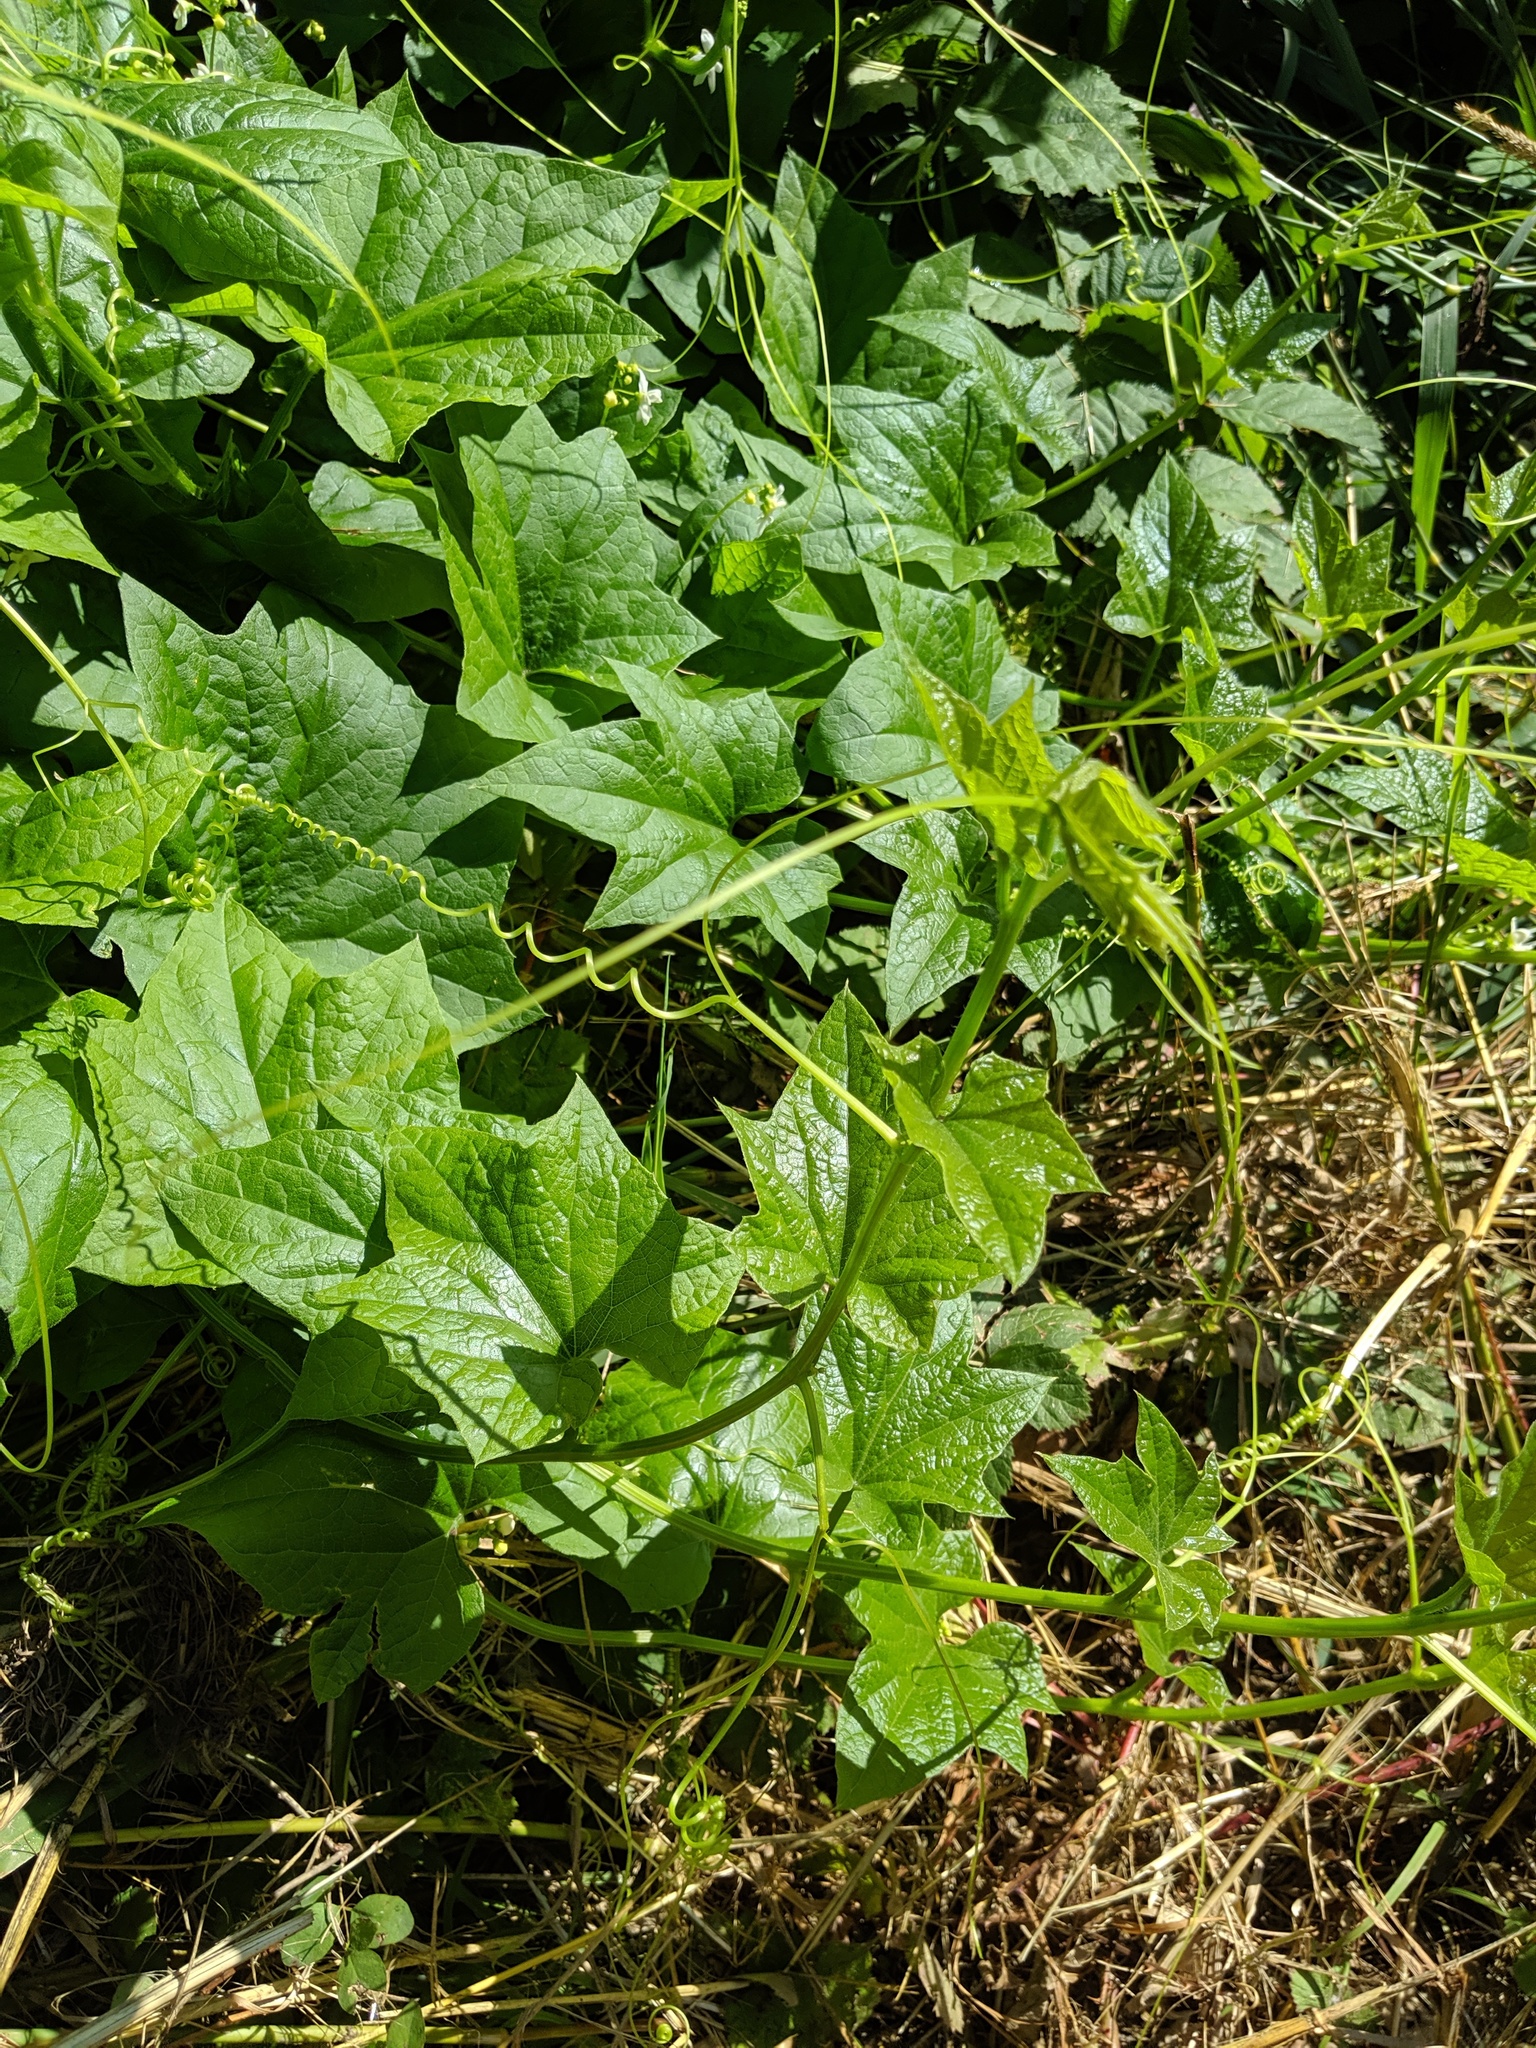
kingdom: Plantae
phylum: Tracheophyta
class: Magnoliopsida
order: Cucurbitales
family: Cucurbitaceae
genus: Marah
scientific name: Marah oregana
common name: Coastal manroot
